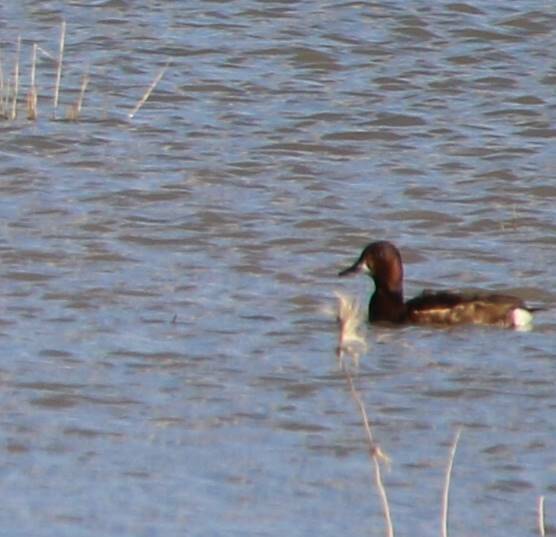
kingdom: Animalia
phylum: Chordata
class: Aves
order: Anseriformes
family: Anatidae
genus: Aythya
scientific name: Aythya nyroca
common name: Ferruginous duck
